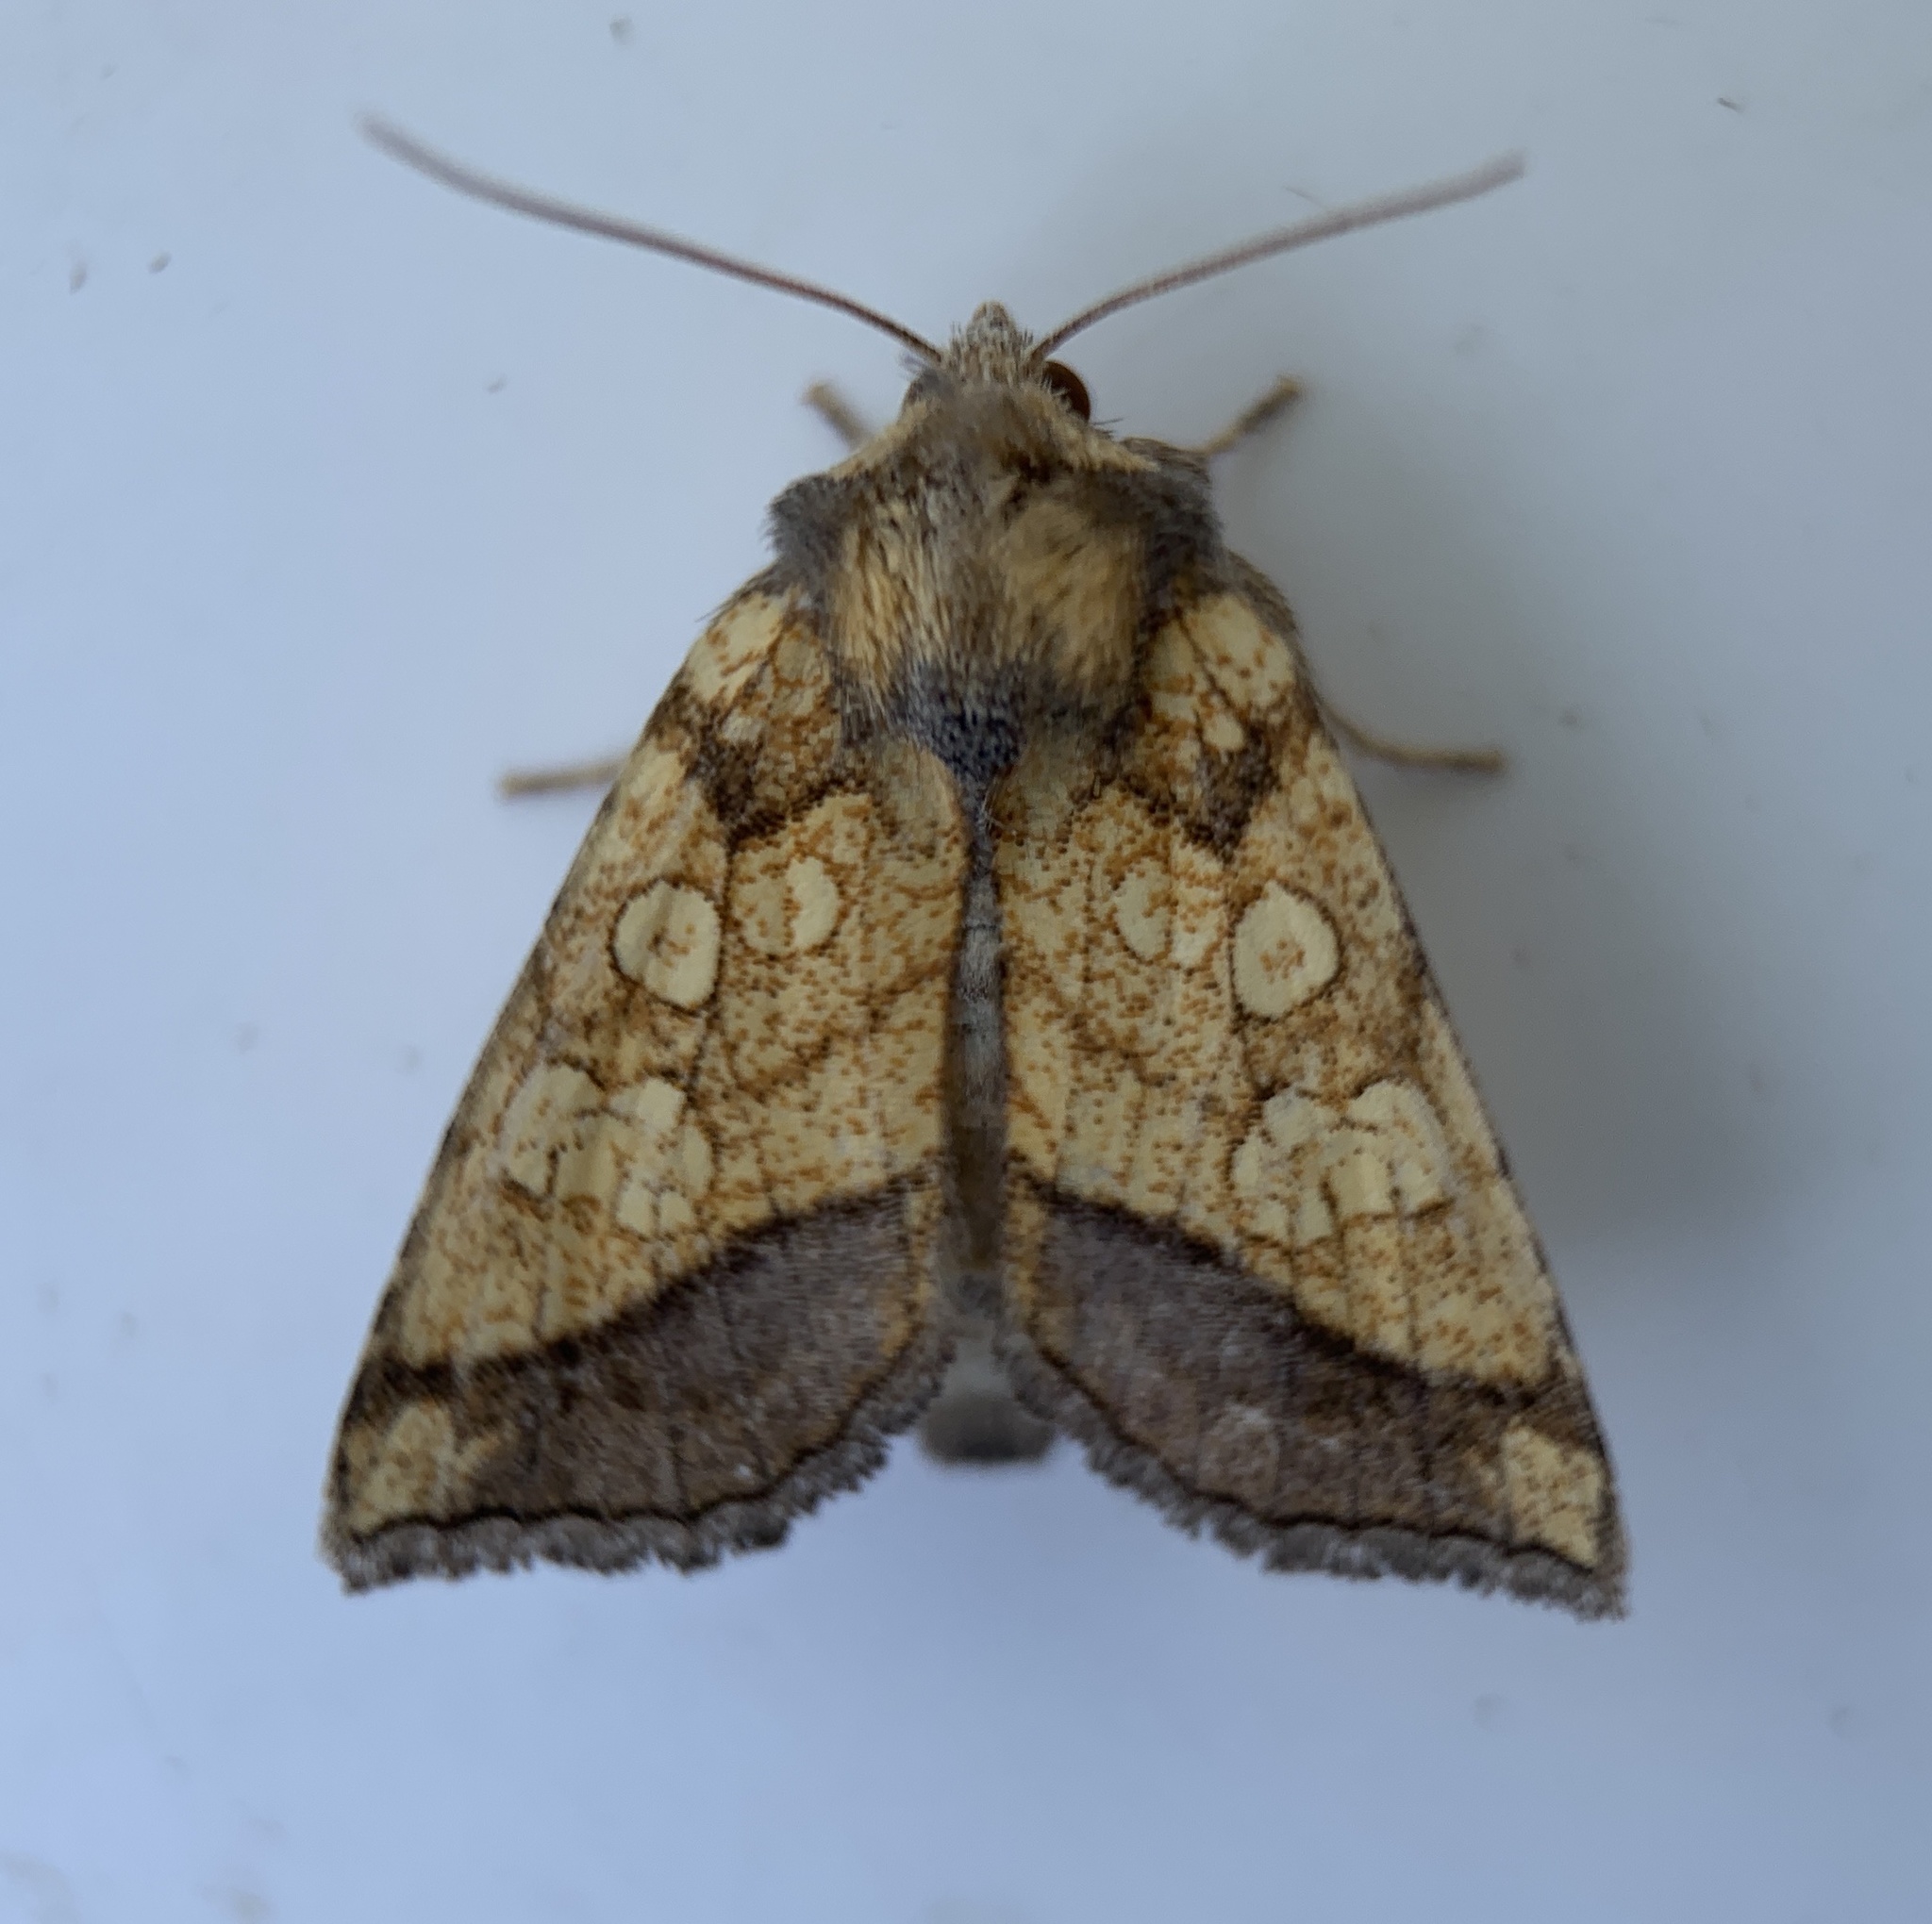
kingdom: Animalia
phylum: Arthropoda
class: Insecta
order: Lepidoptera
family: Noctuidae
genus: Papaipema
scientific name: Papaipema rigida
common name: Rigid sunflower borer moth
